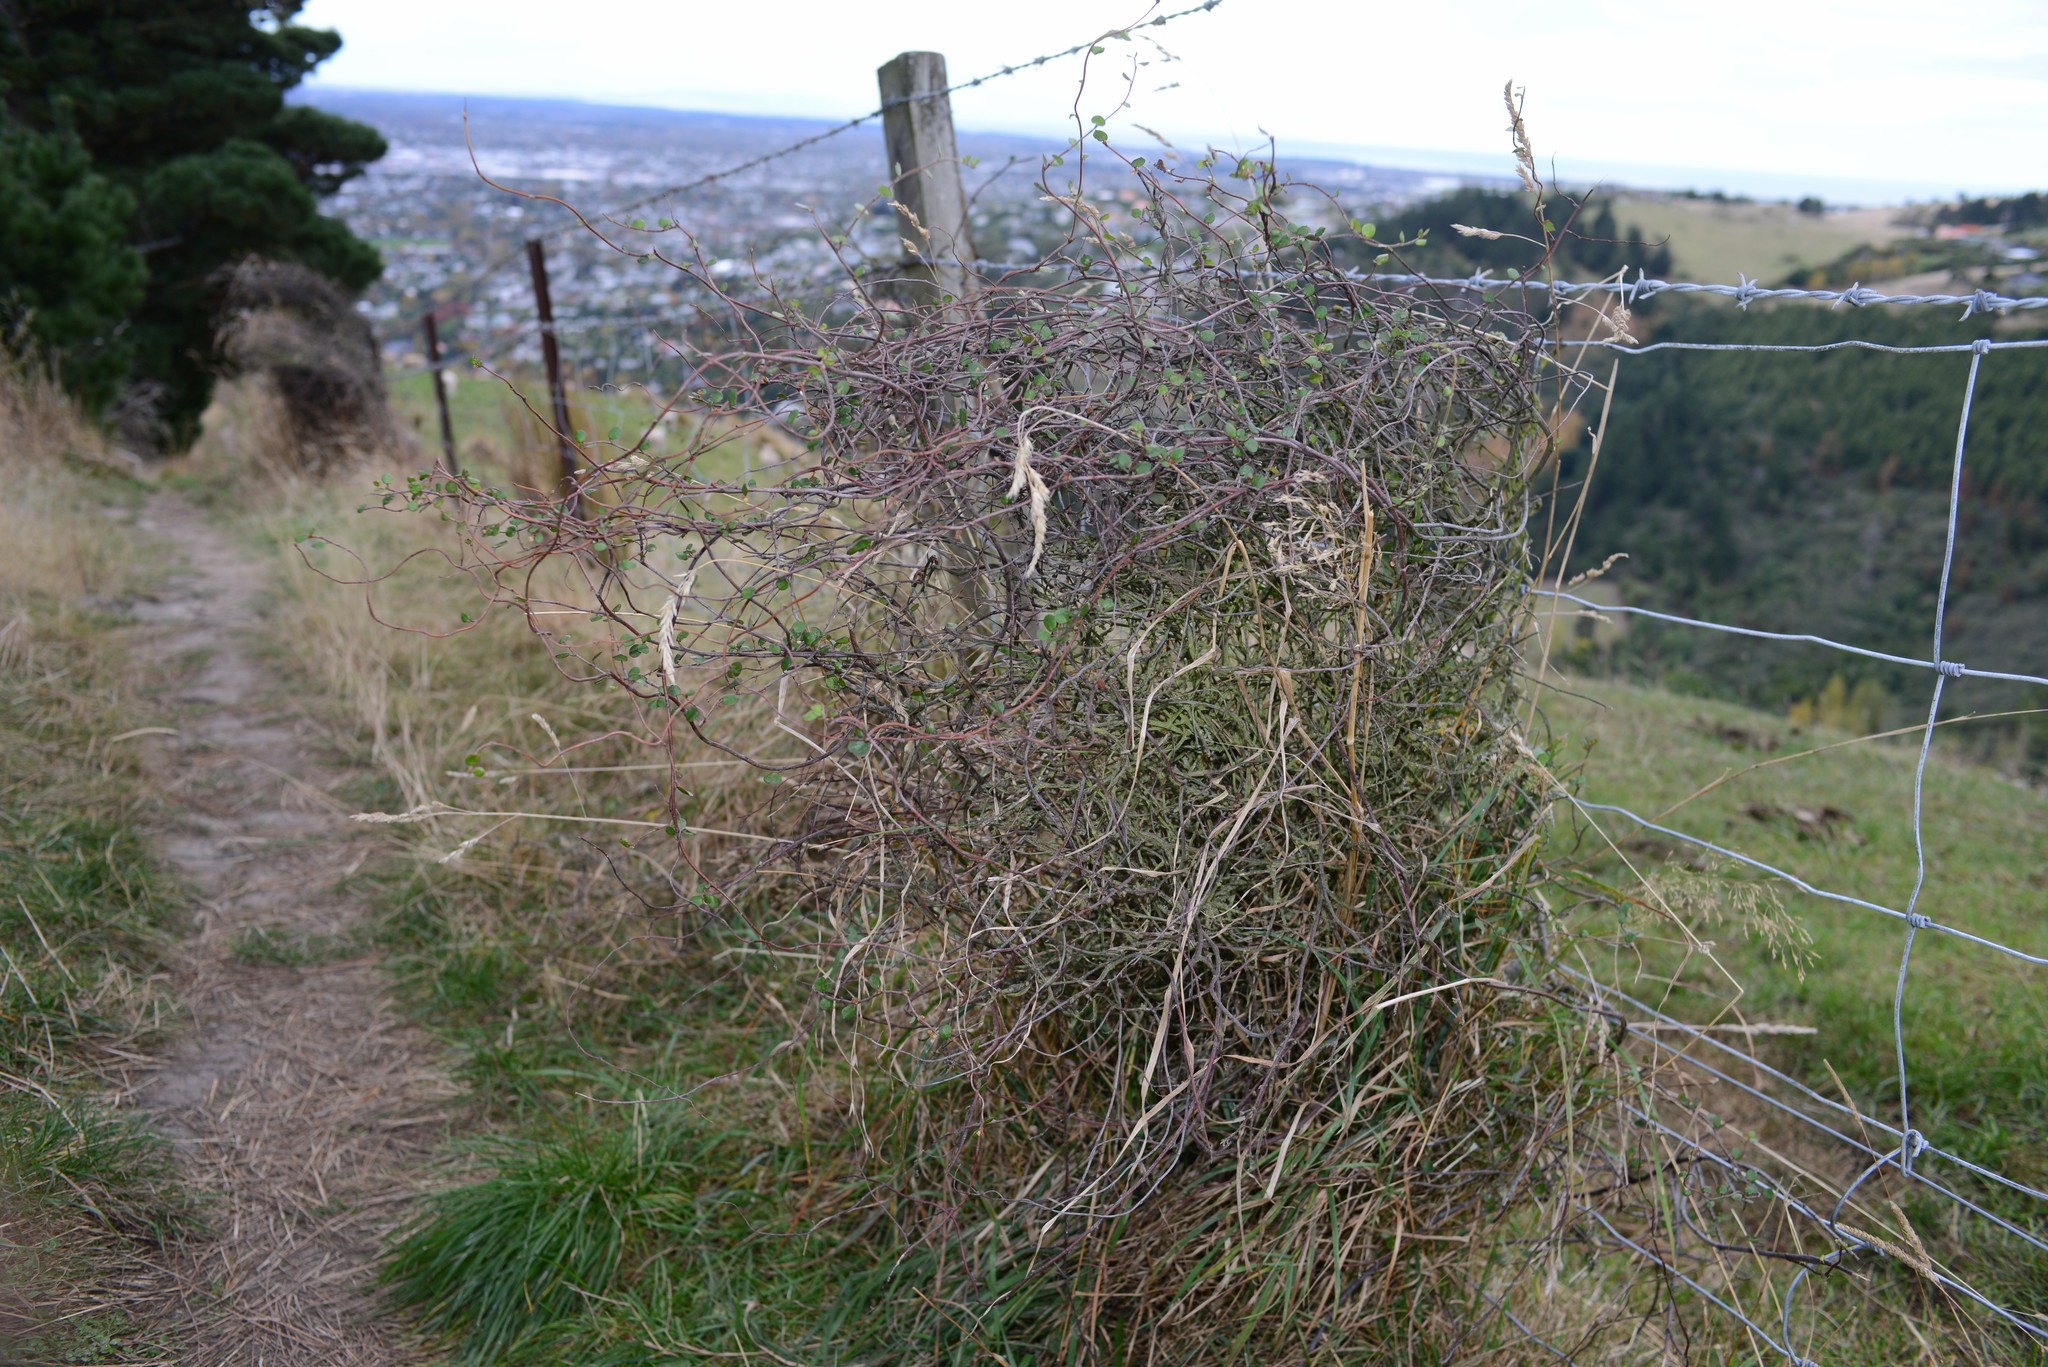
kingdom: Plantae
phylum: Tracheophyta
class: Magnoliopsida
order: Caryophyllales
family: Polygonaceae
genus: Muehlenbeckia
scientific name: Muehlenbeckia complexa
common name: Wireplant
